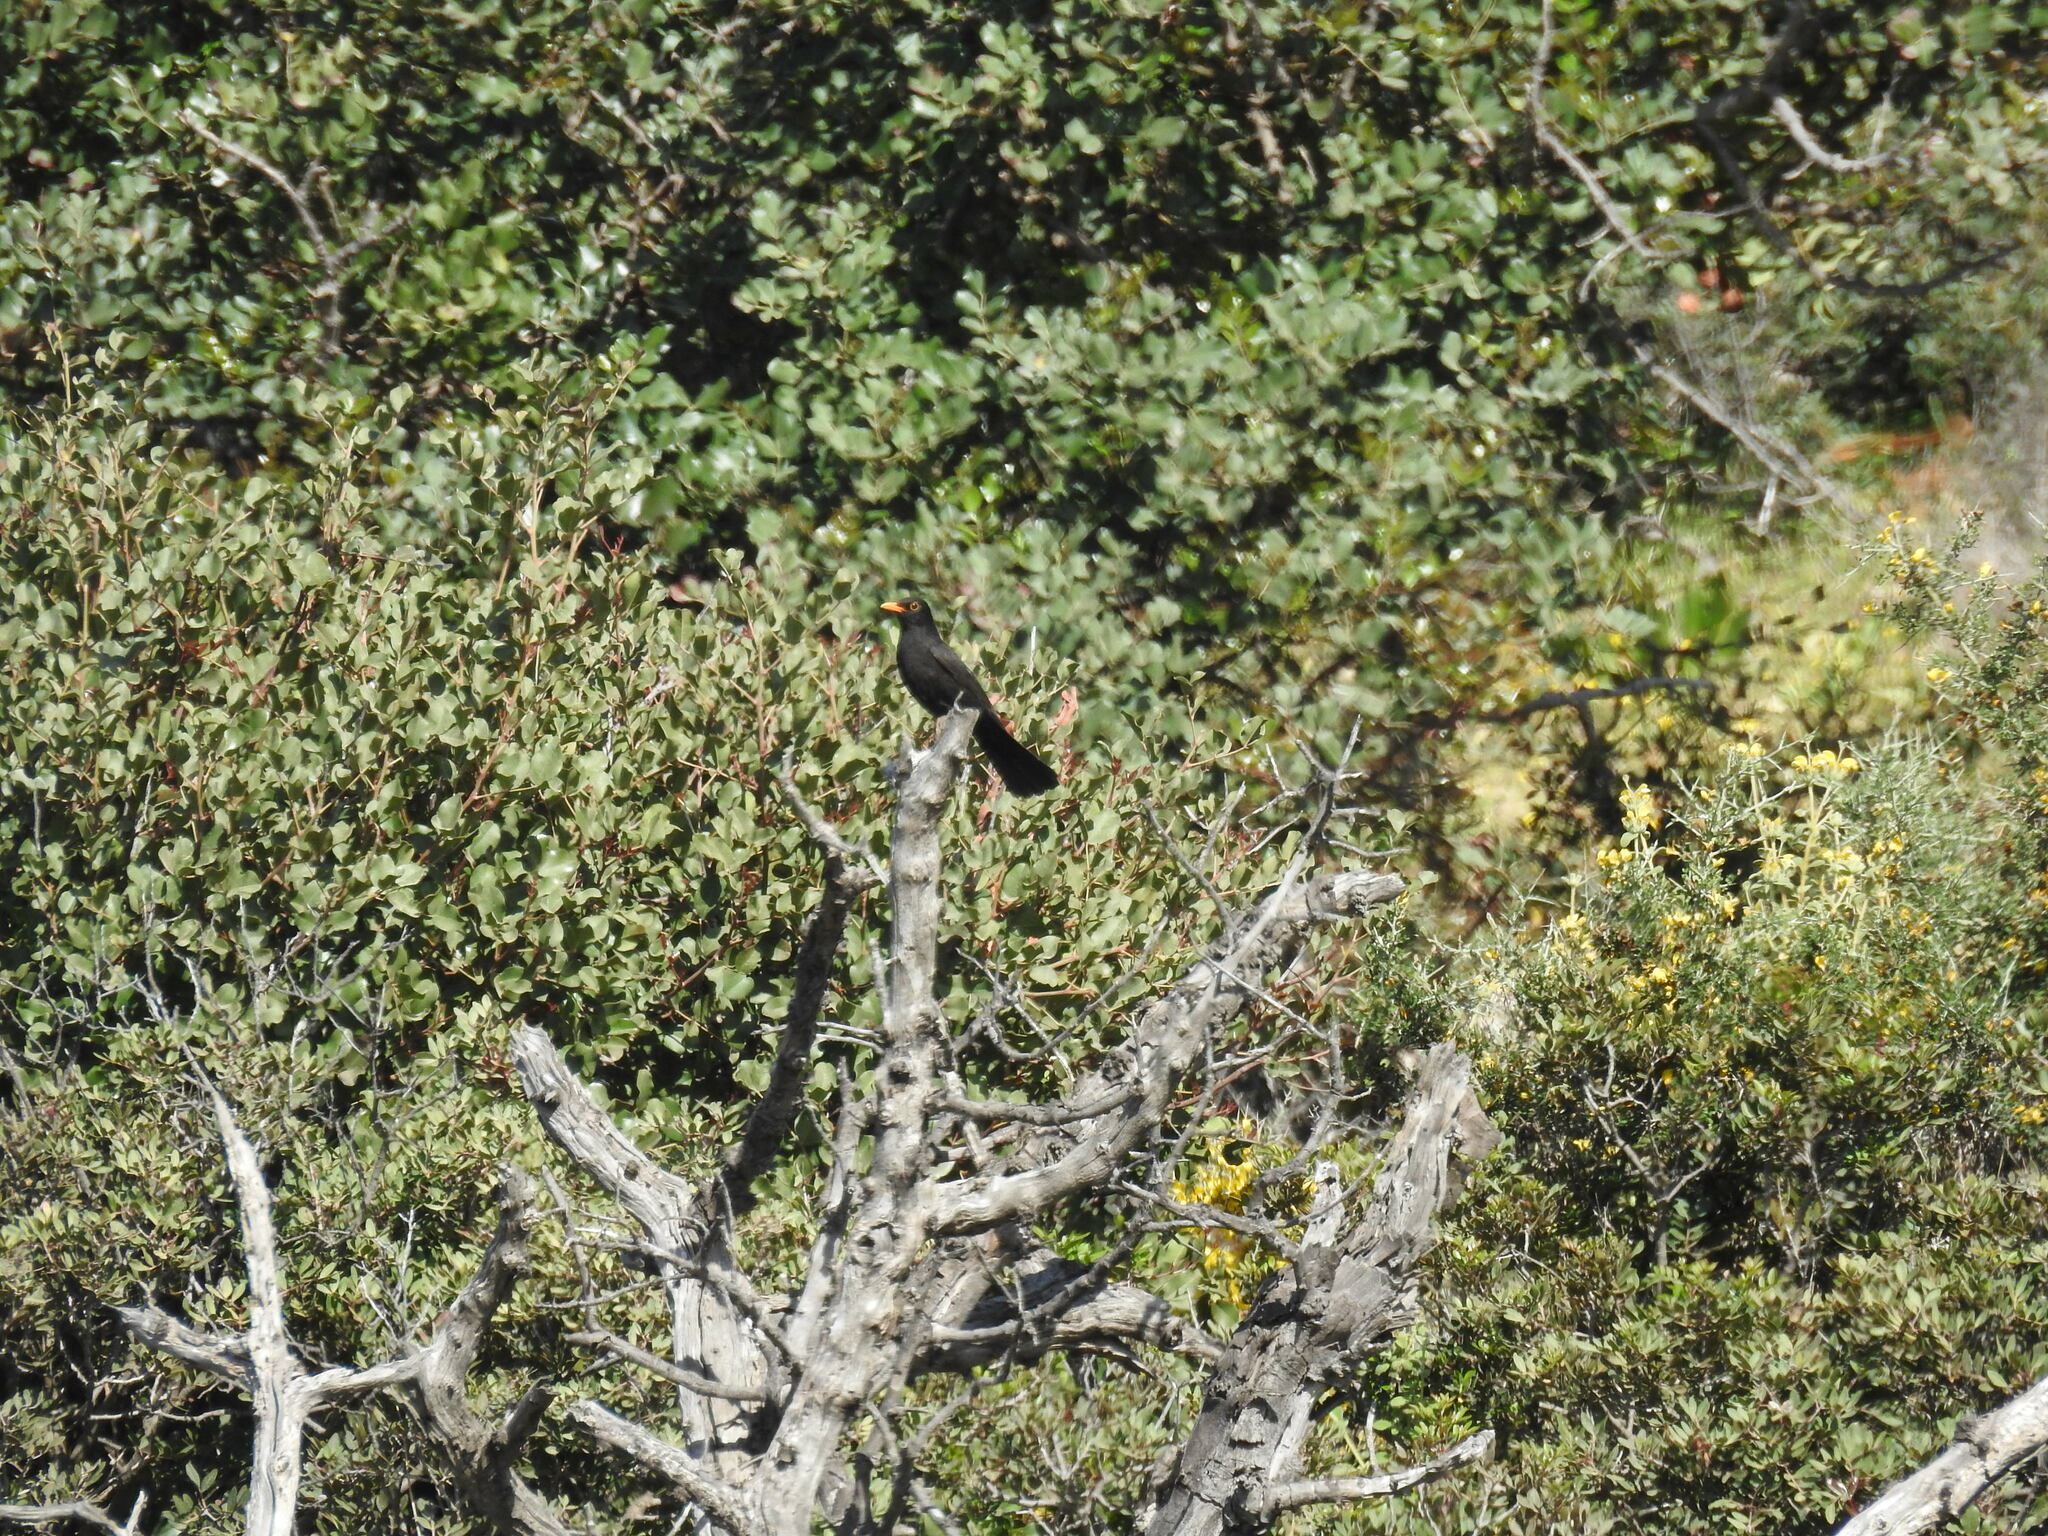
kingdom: Animalia
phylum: Chordata
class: Aves
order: Passeriformes
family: Turdidae
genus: Turdus
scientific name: Turdus merula
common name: Common blackbird
